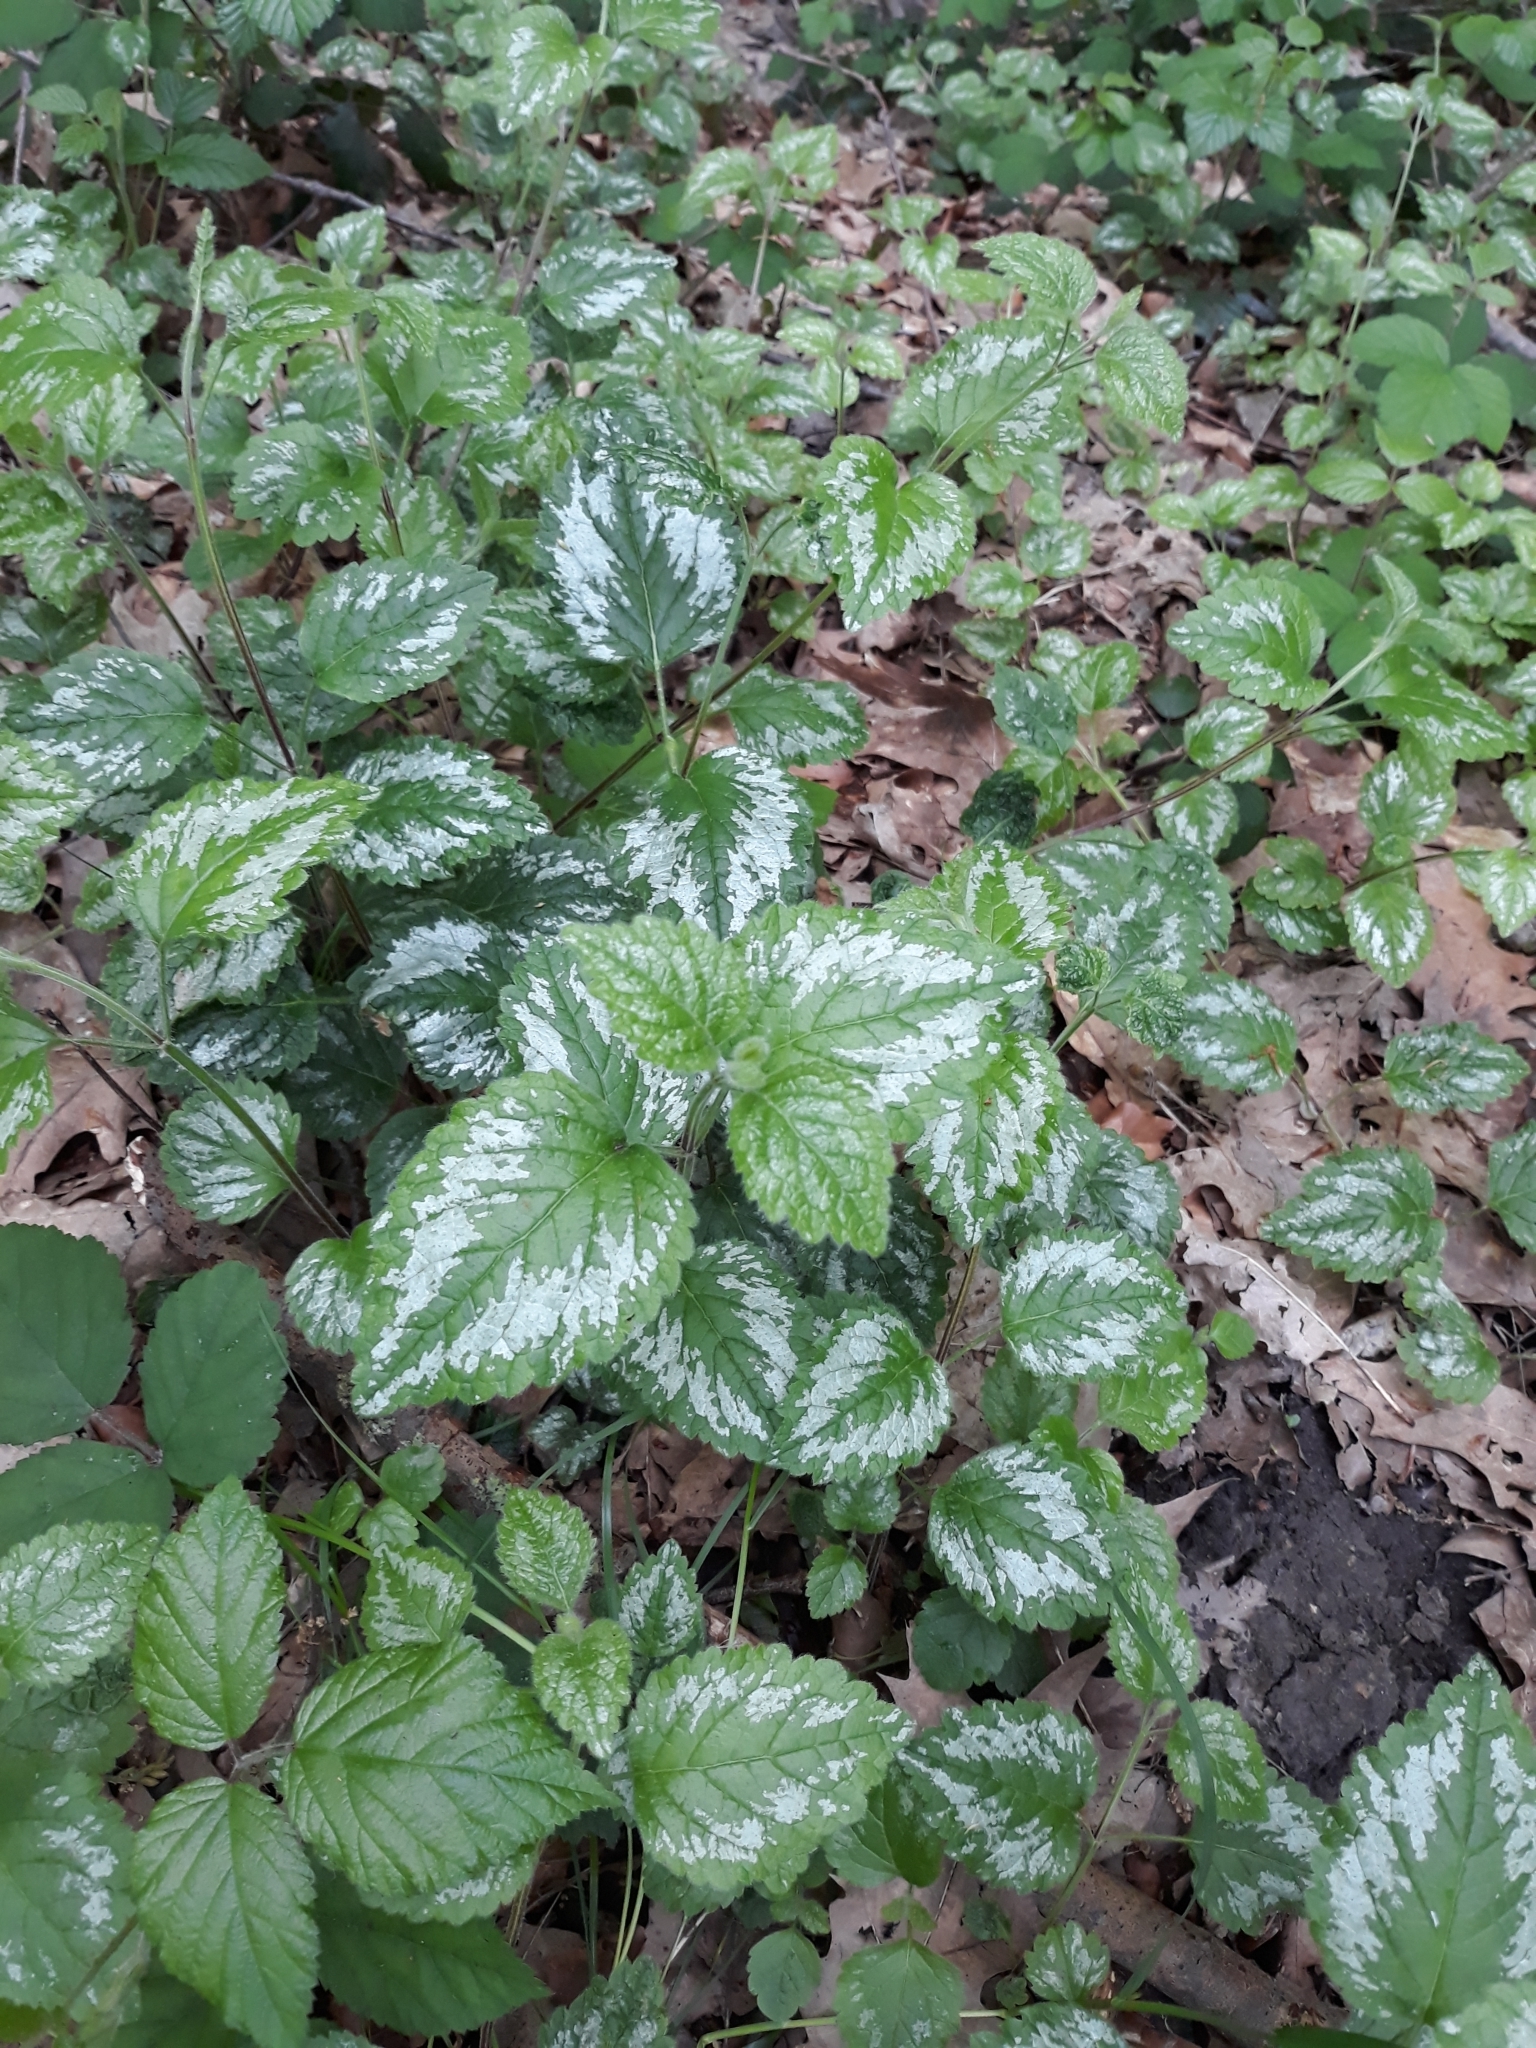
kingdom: Plantae
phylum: Tracheophyta
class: Magnoliopsida
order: Lamiales
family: Lamiaceae
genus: Lamium
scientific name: Lamium galeobdolon
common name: Yellow archangel
